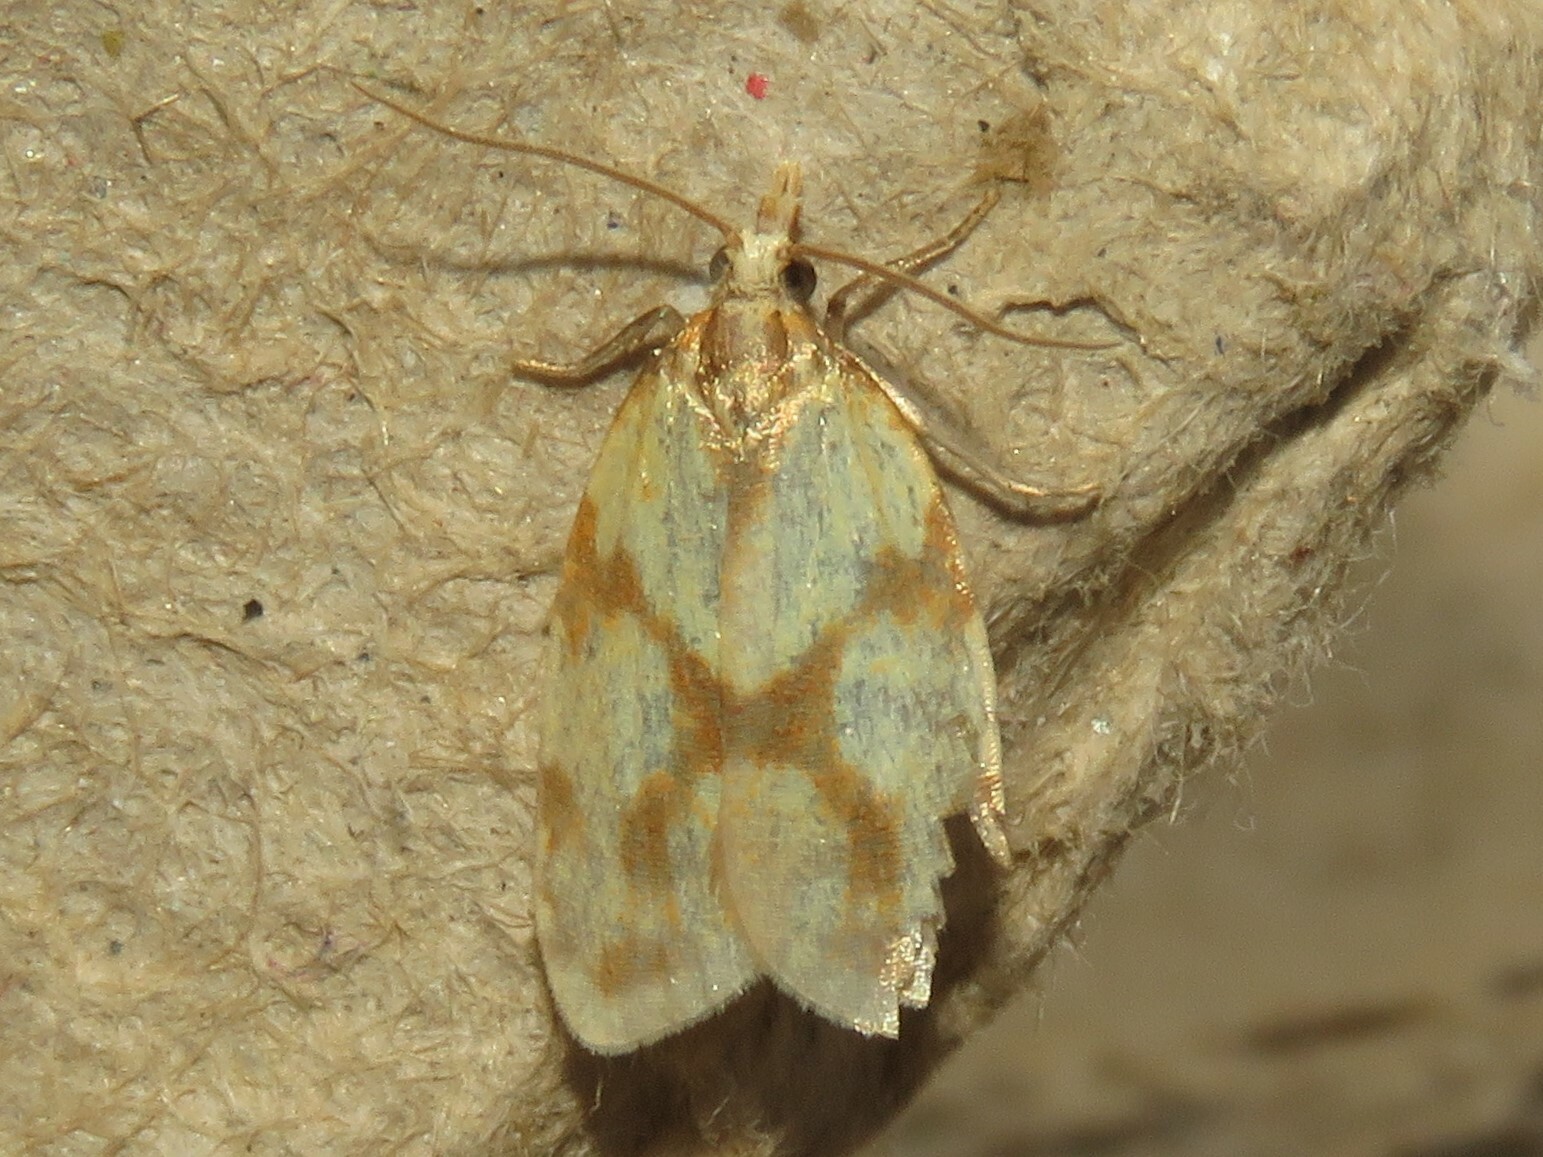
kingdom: Animalia
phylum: Arthropoda
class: Insecta
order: Lepidoptera
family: Tortricidae
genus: Sparganothis
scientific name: Sparganothis sulfureana
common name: Sparganothis fruitworm moth
